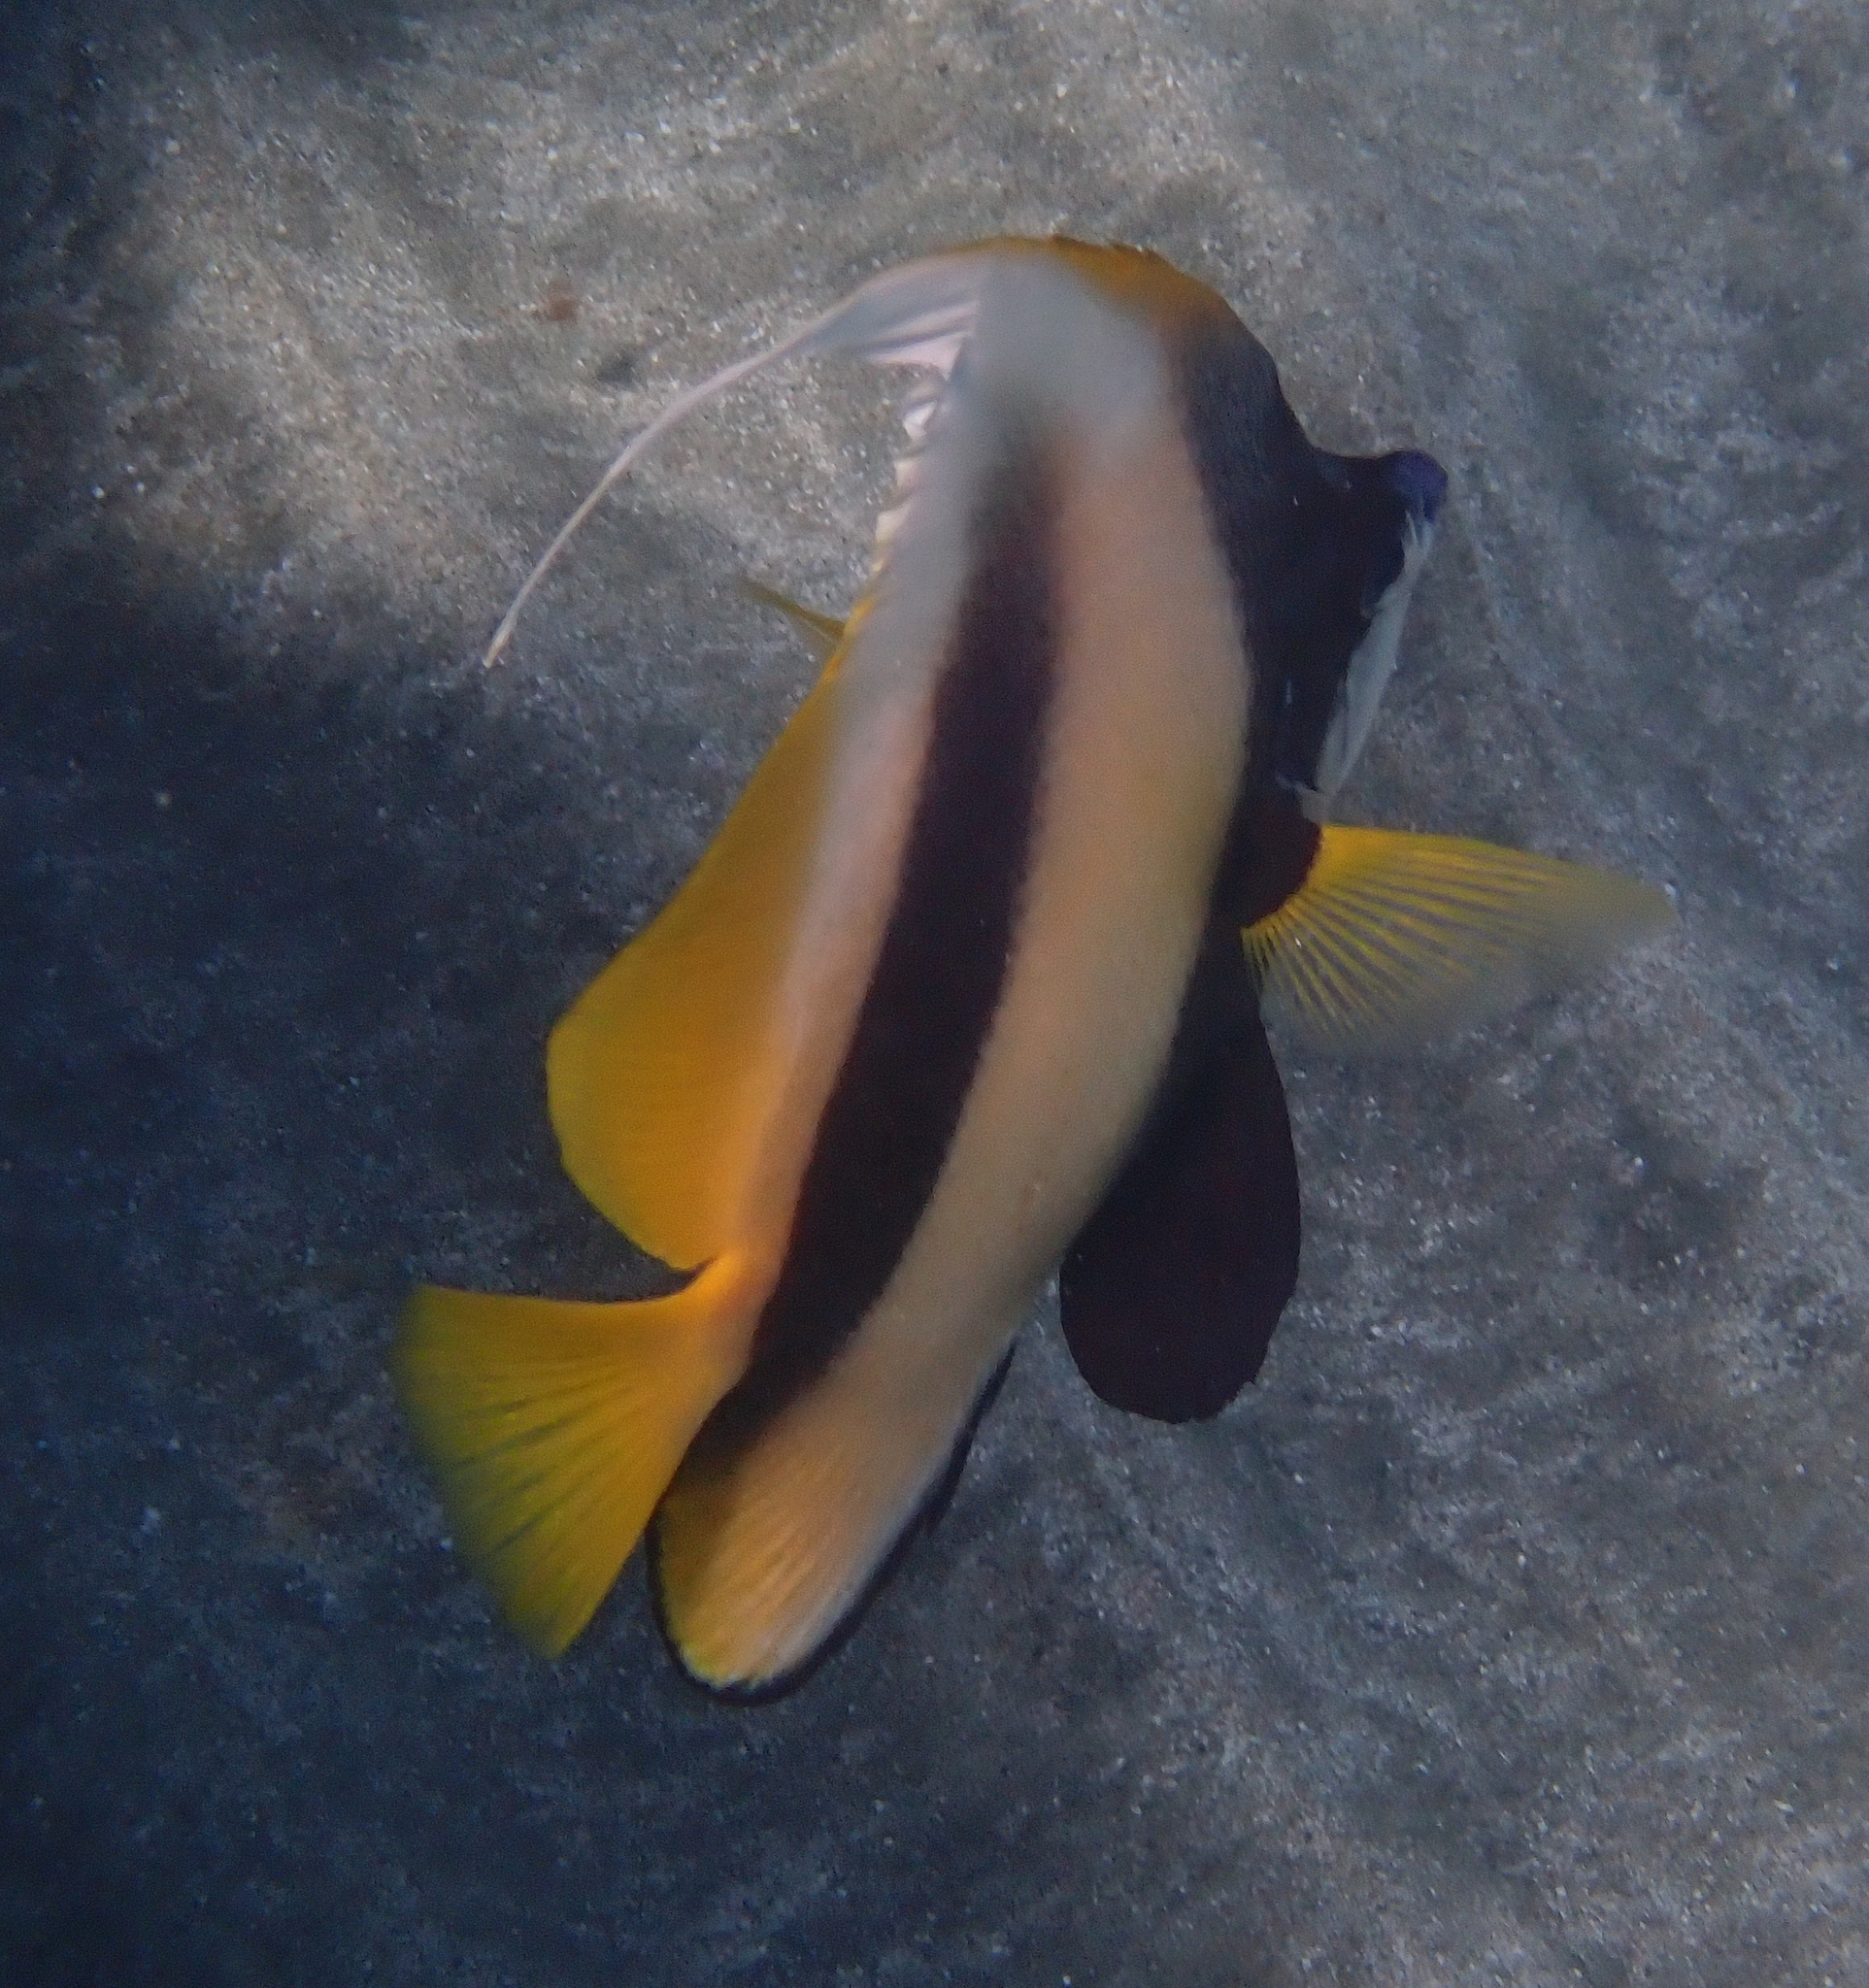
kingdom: Animalia
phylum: Chordata
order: Perciformes
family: Chaetodontidae
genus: Heniochus
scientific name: Heniochus intermedius
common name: Red sea bannerfish
